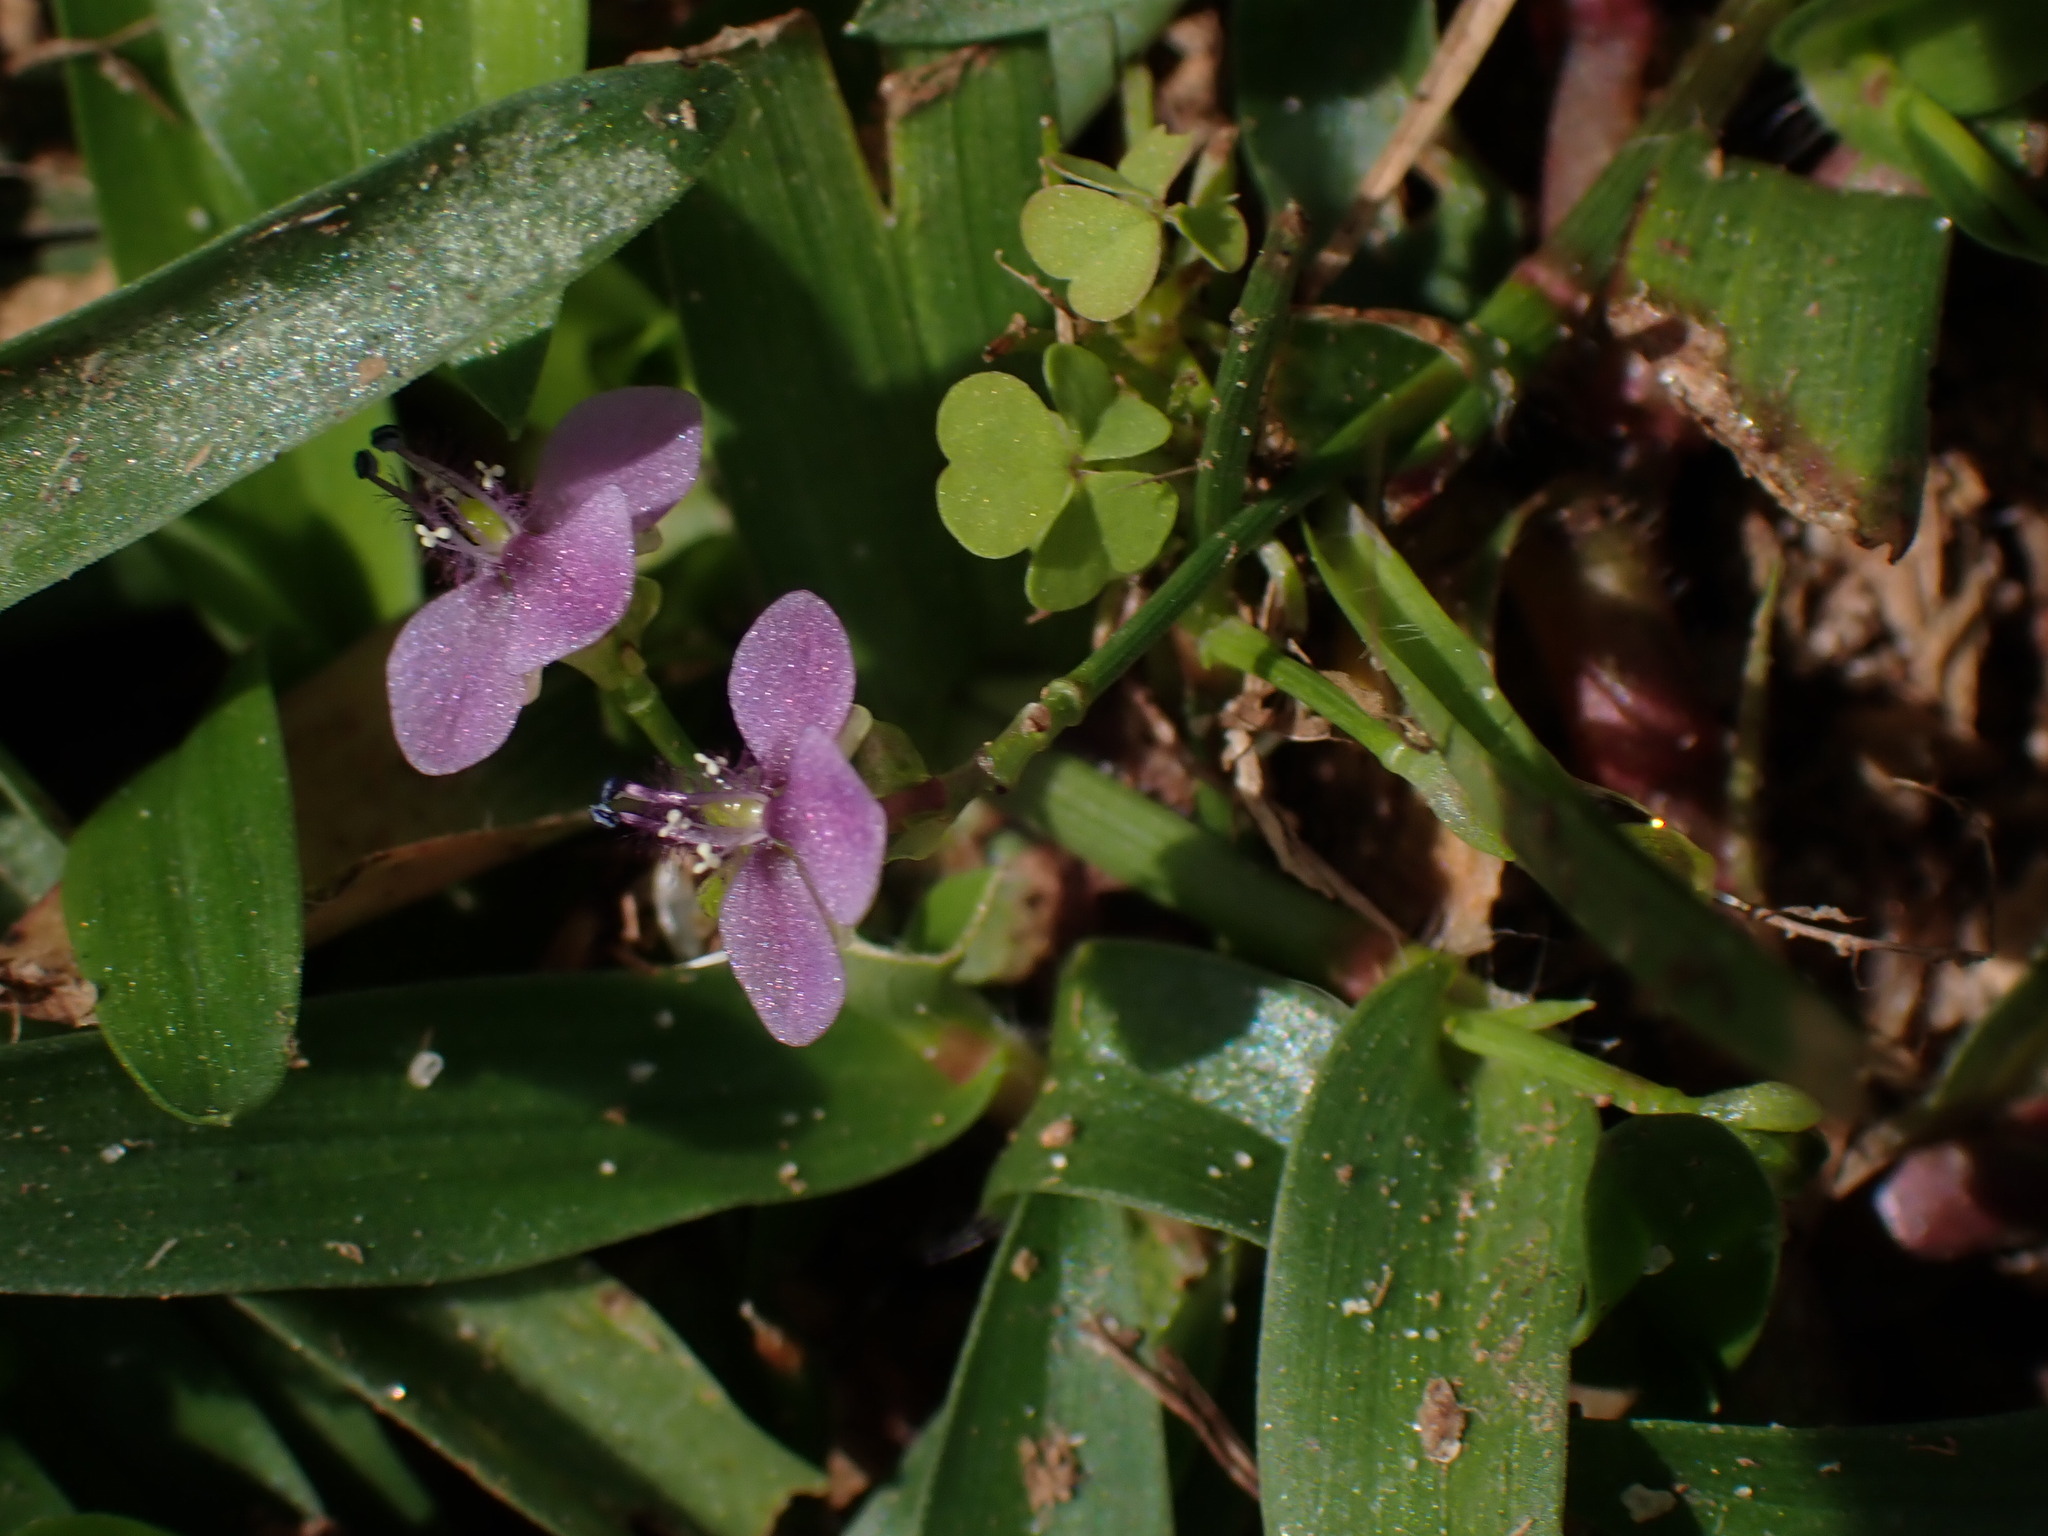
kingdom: Plantae
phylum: Tracheophyta
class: Liliopsida
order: Commelinales
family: Commelinaceae
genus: Murdannia
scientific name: Murdannia nudiflora
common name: Nakedstem dewflower
